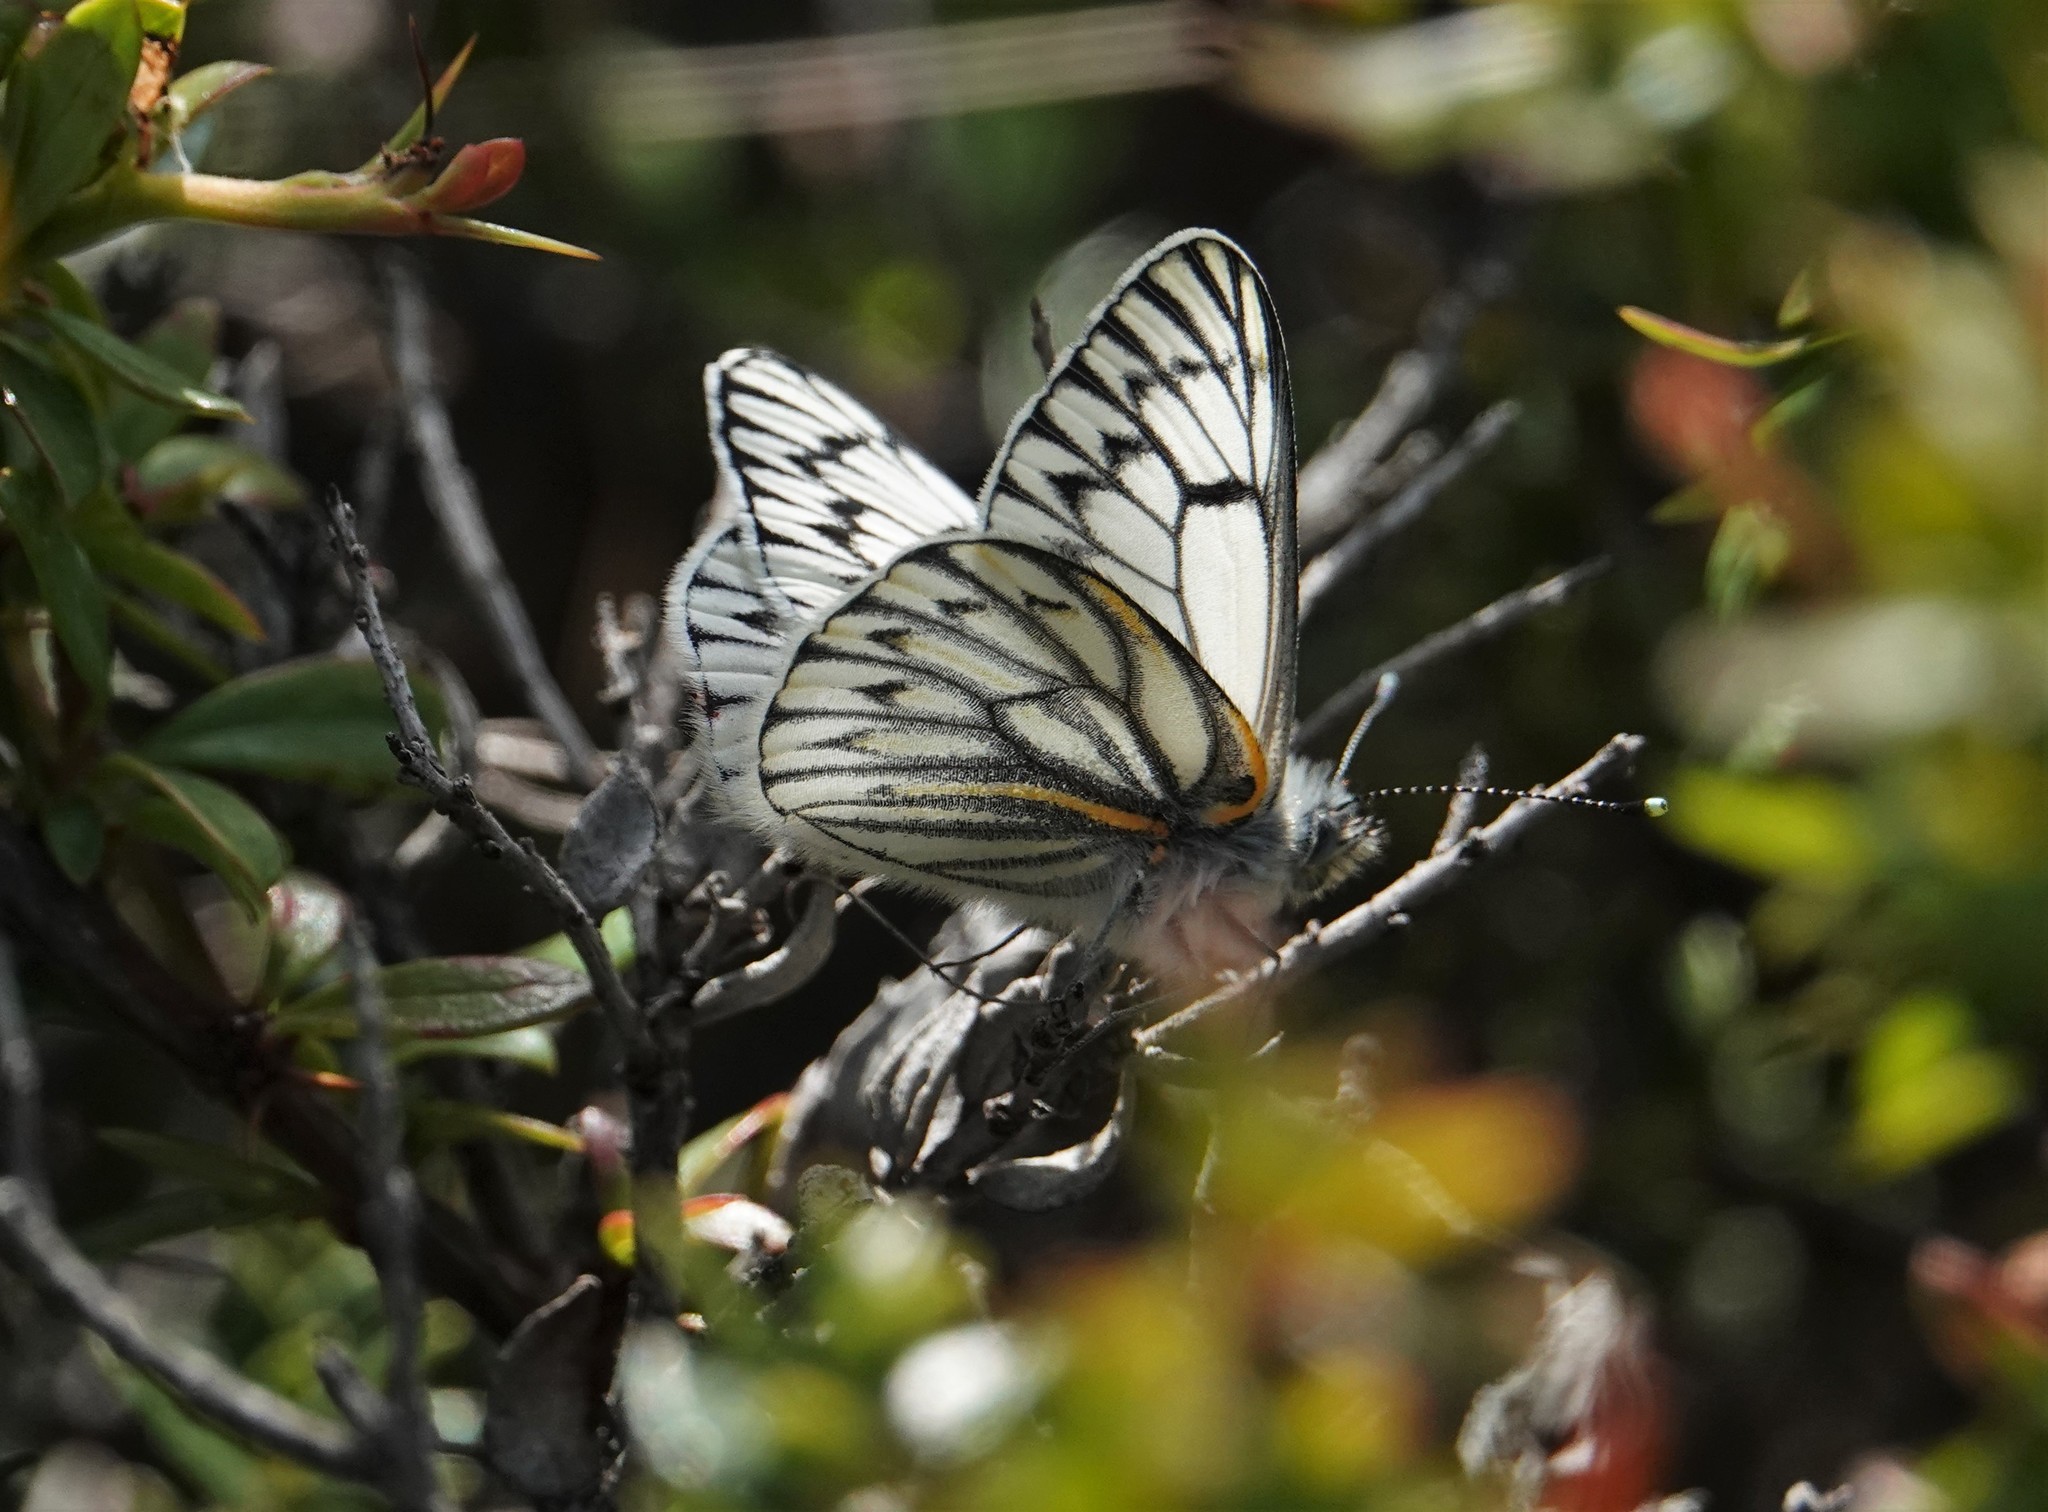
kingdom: Animalia
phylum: Arthropoda
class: Insecta
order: Lepidoptera
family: Pieridae
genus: Tatochila
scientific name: Tatochila theodice
